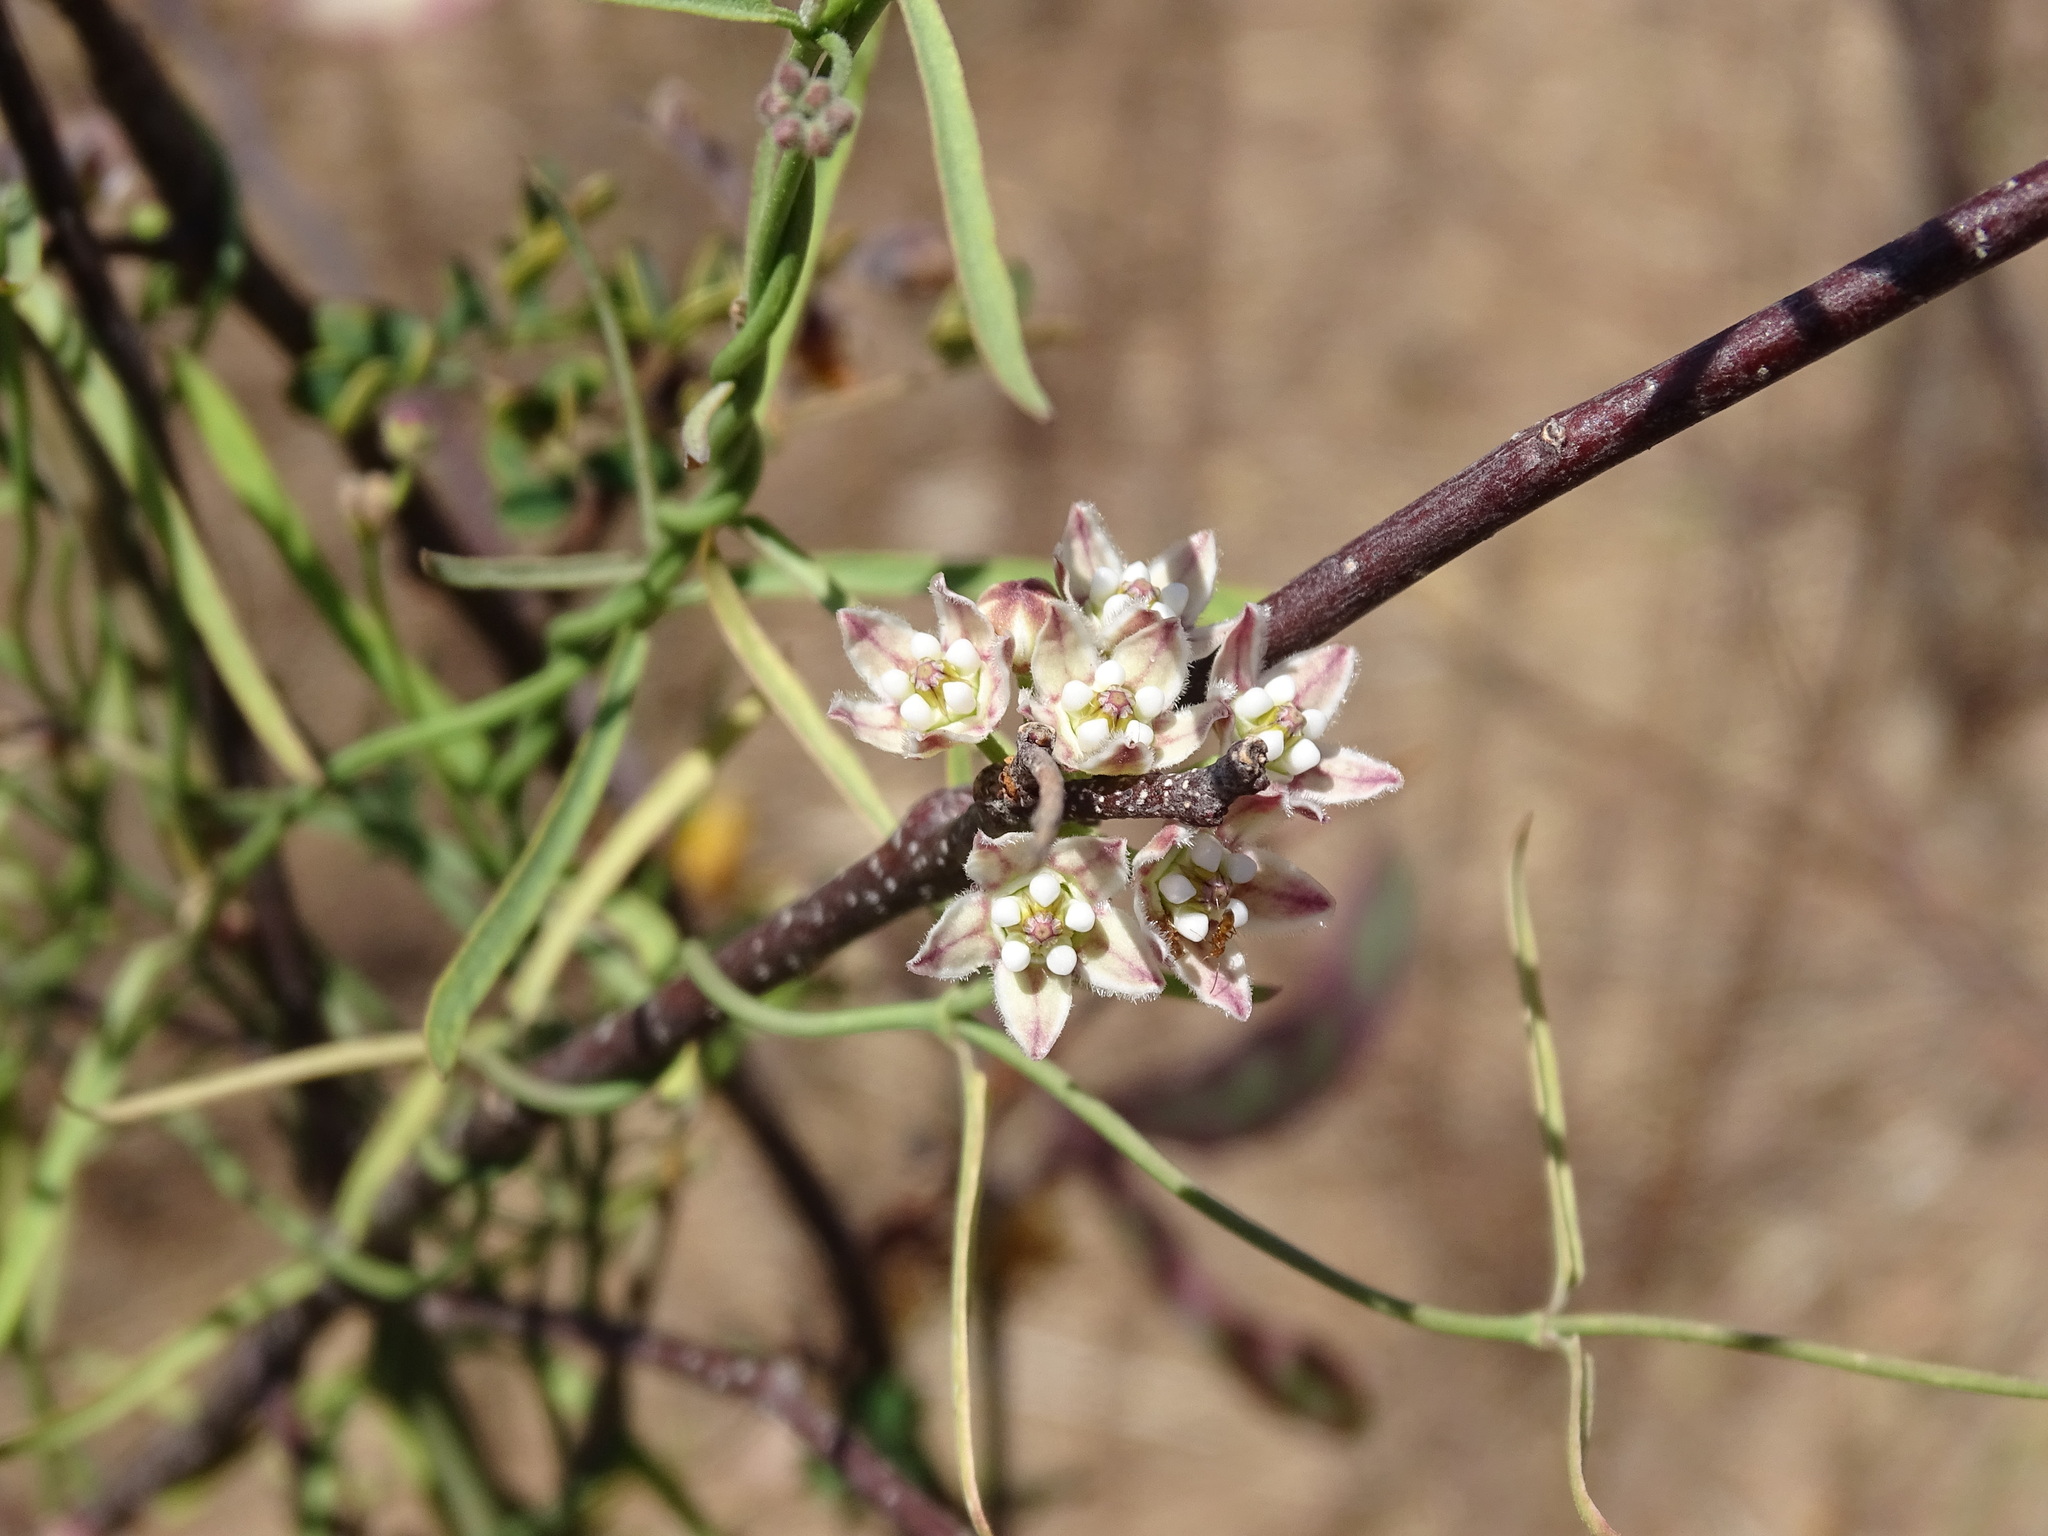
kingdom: Plantae
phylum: Tracheophyta
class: Magnoliopsida
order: Gentianales
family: Apocynaceae
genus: Funastrum
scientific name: Funastrum heterophyllum
